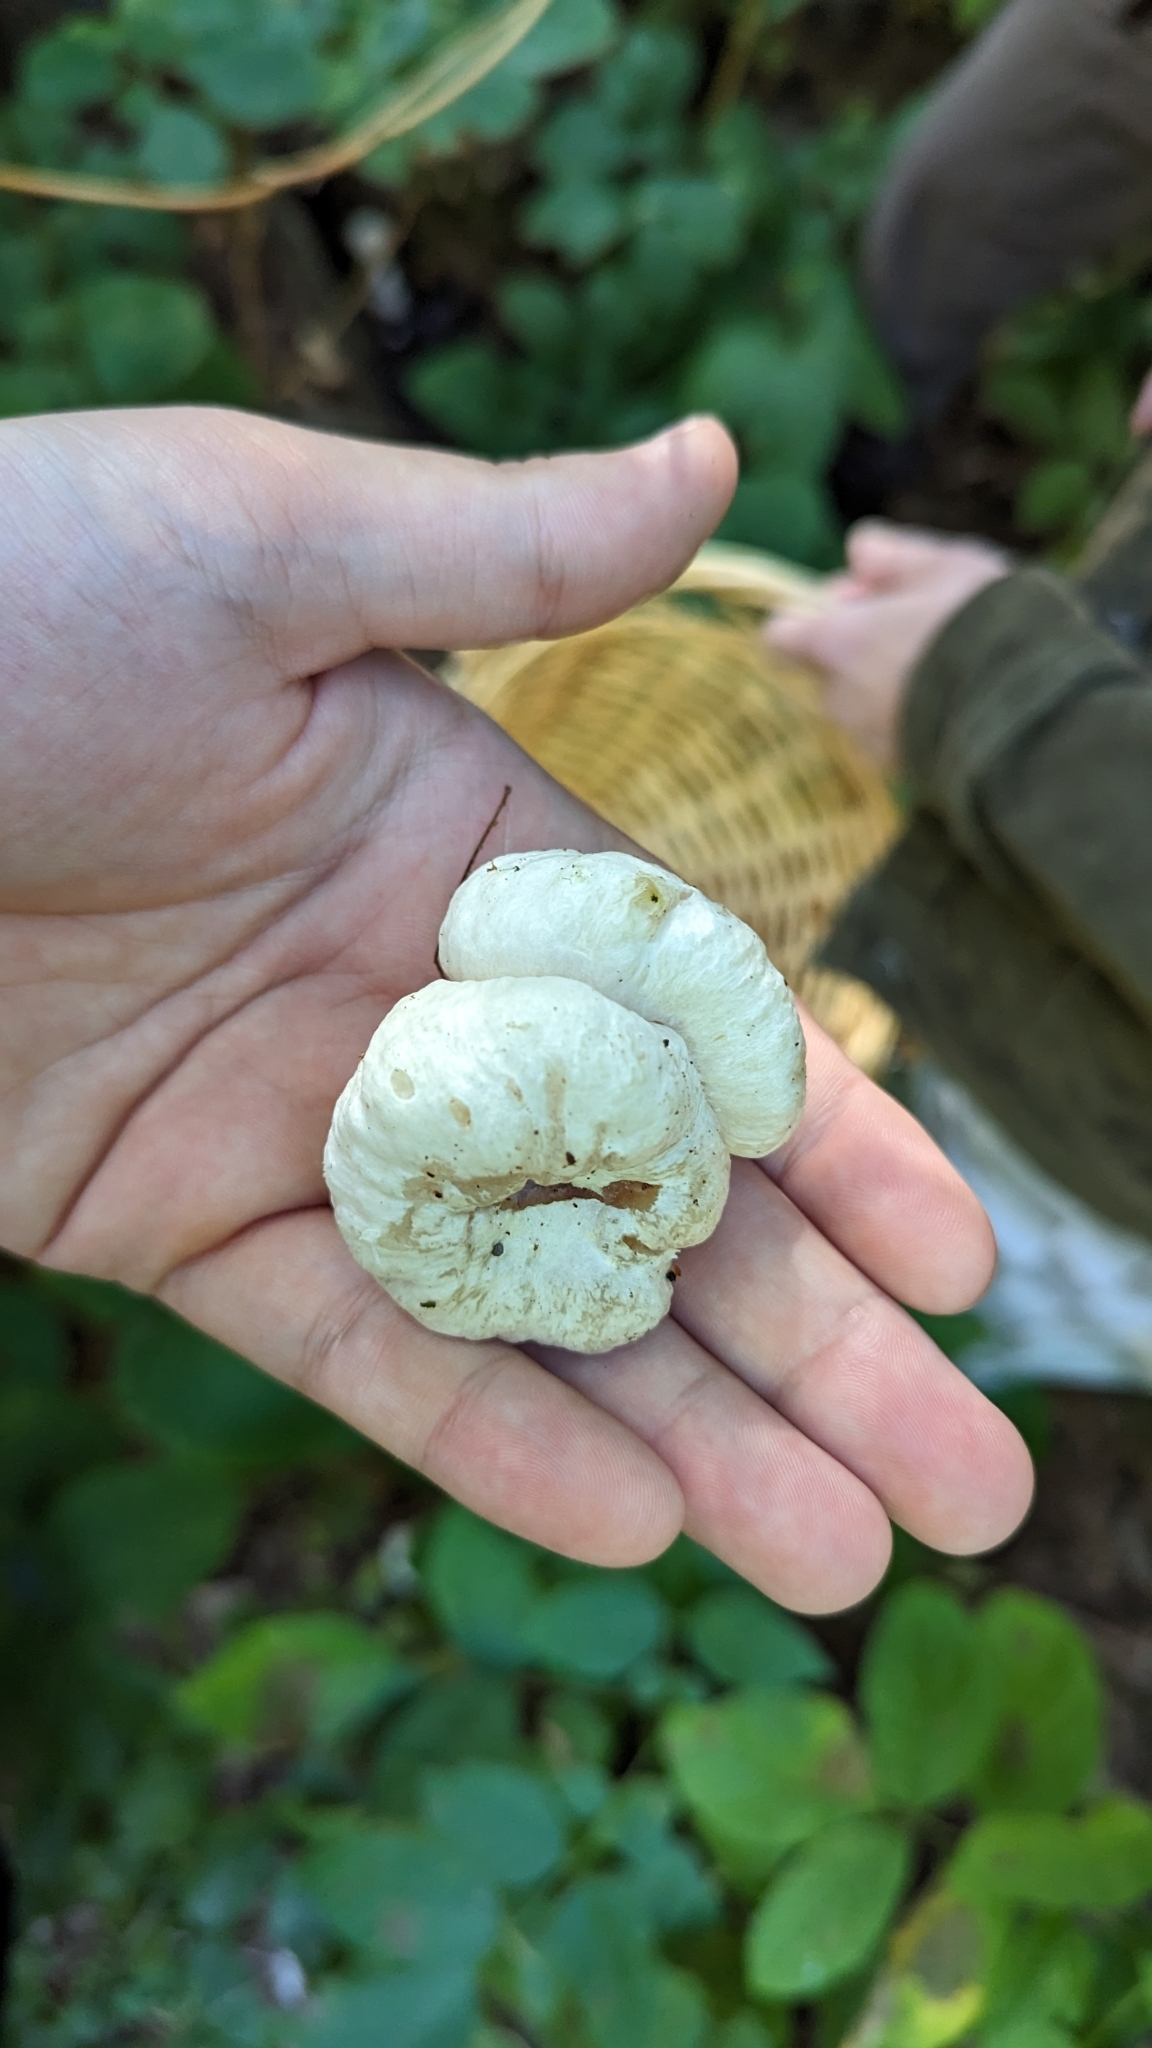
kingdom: Fungi
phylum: Basidiomycota
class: Agaricomycetes
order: Agaricales
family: Entolomataceae
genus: Entoloma
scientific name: Entoloma abortivum
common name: Aborted entoloma
